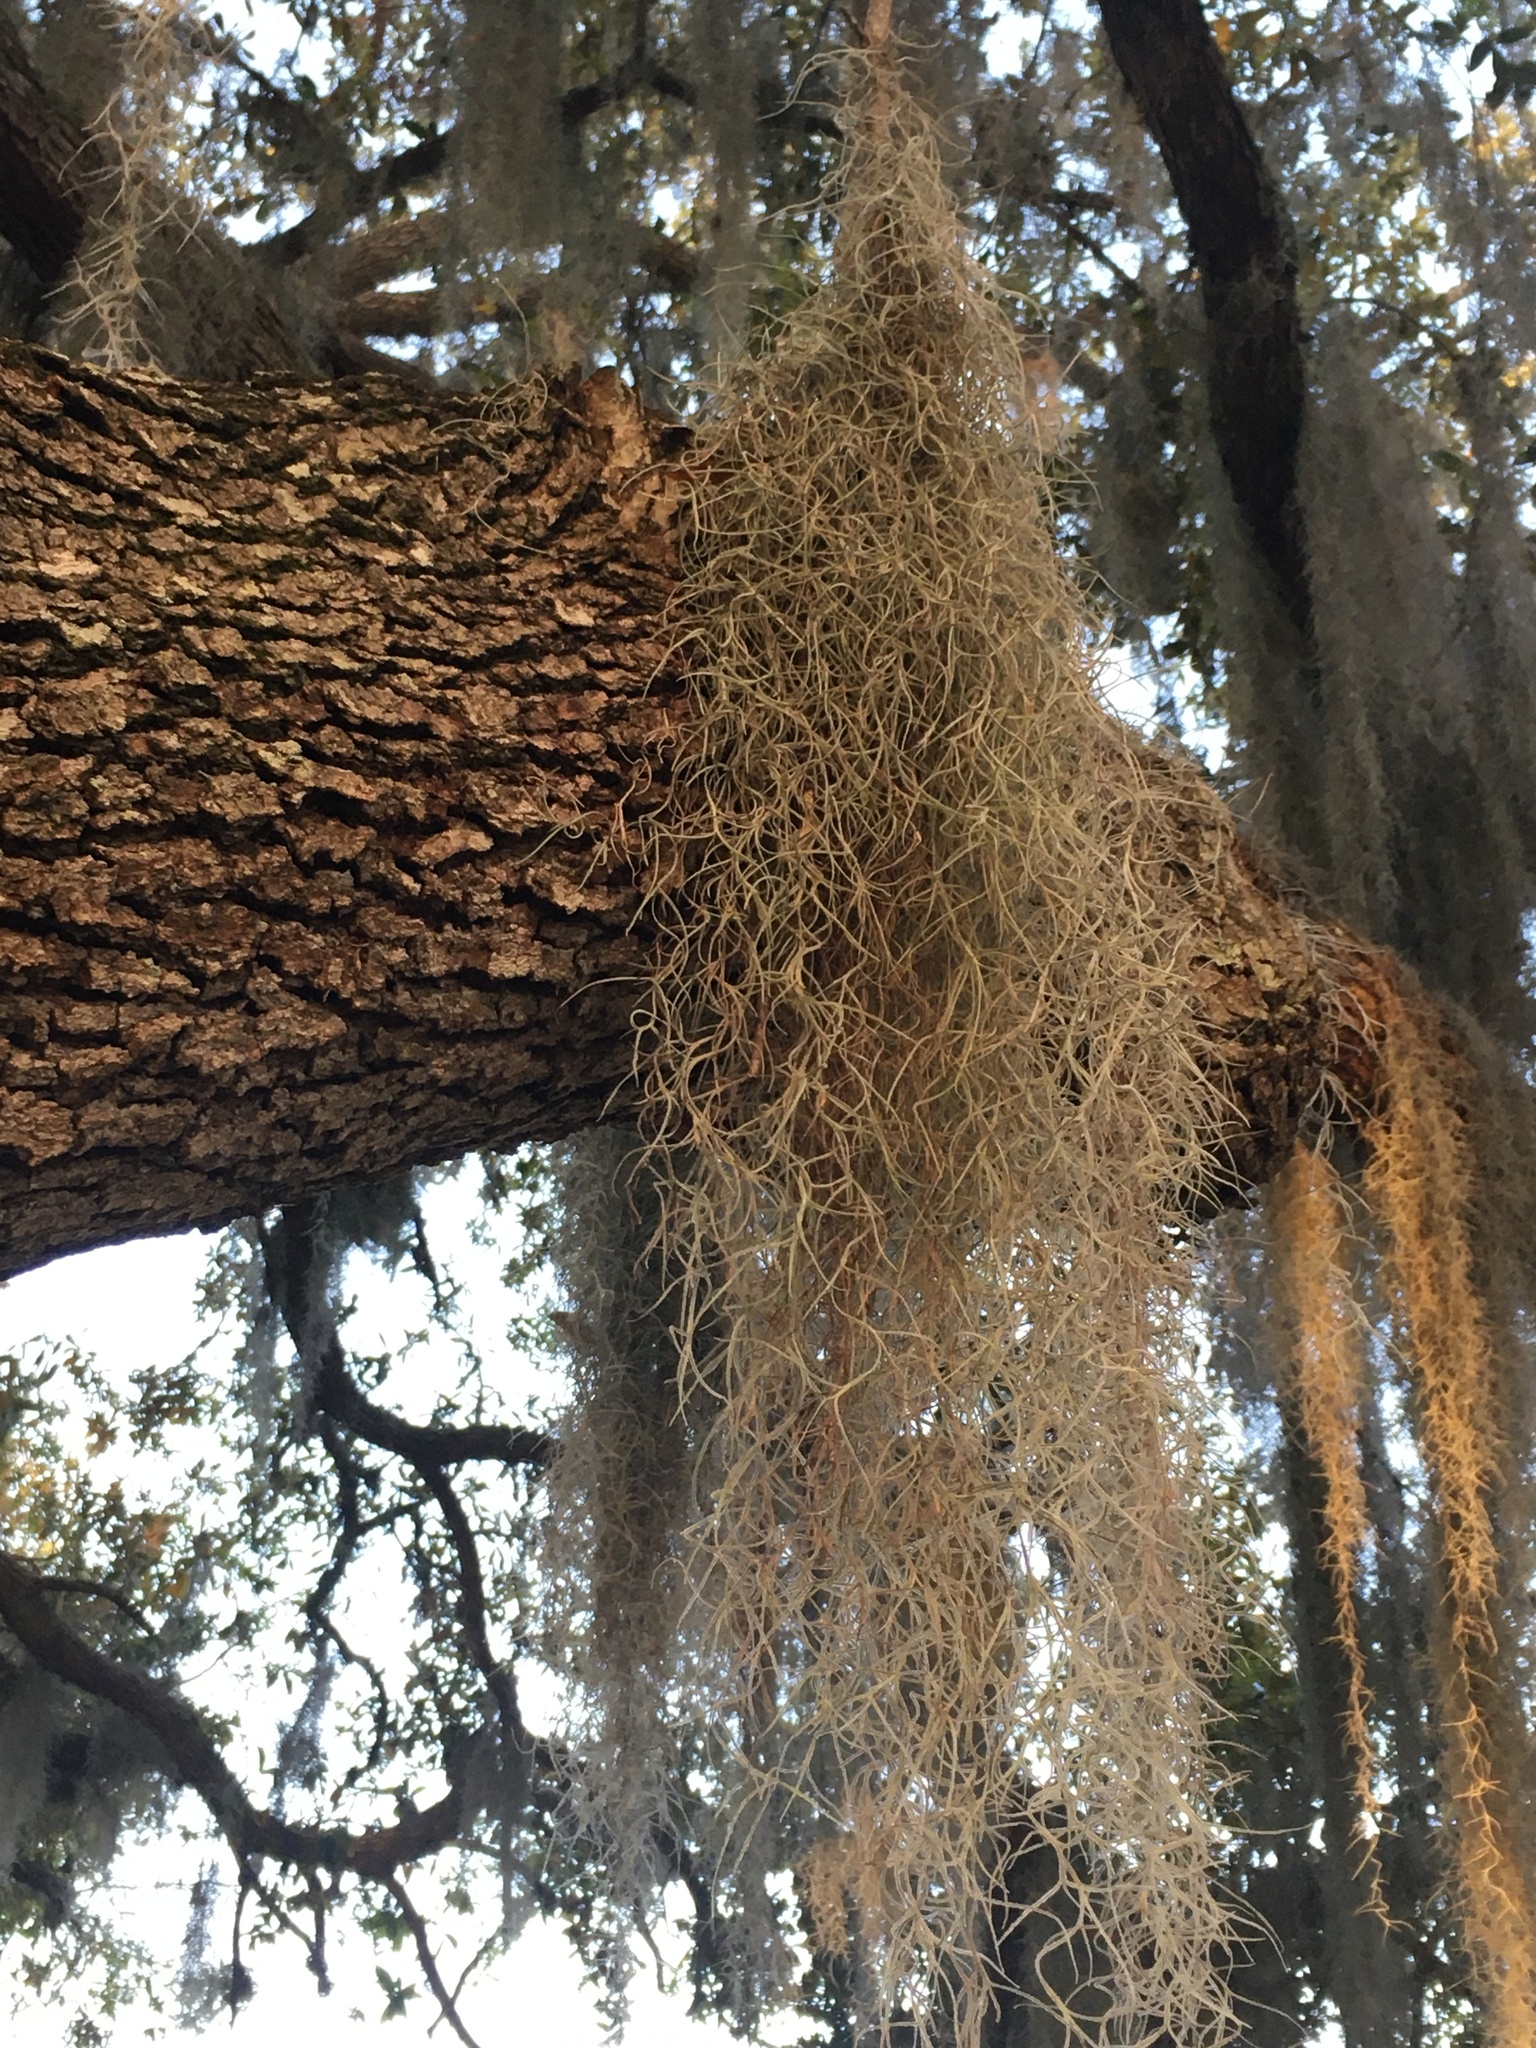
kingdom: Plantae
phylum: Tracheophyta
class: Liliopsida
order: Poales
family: Bromeliaceae
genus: Tillandsia
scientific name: Tillandsia usneoides
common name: Spanish moss
